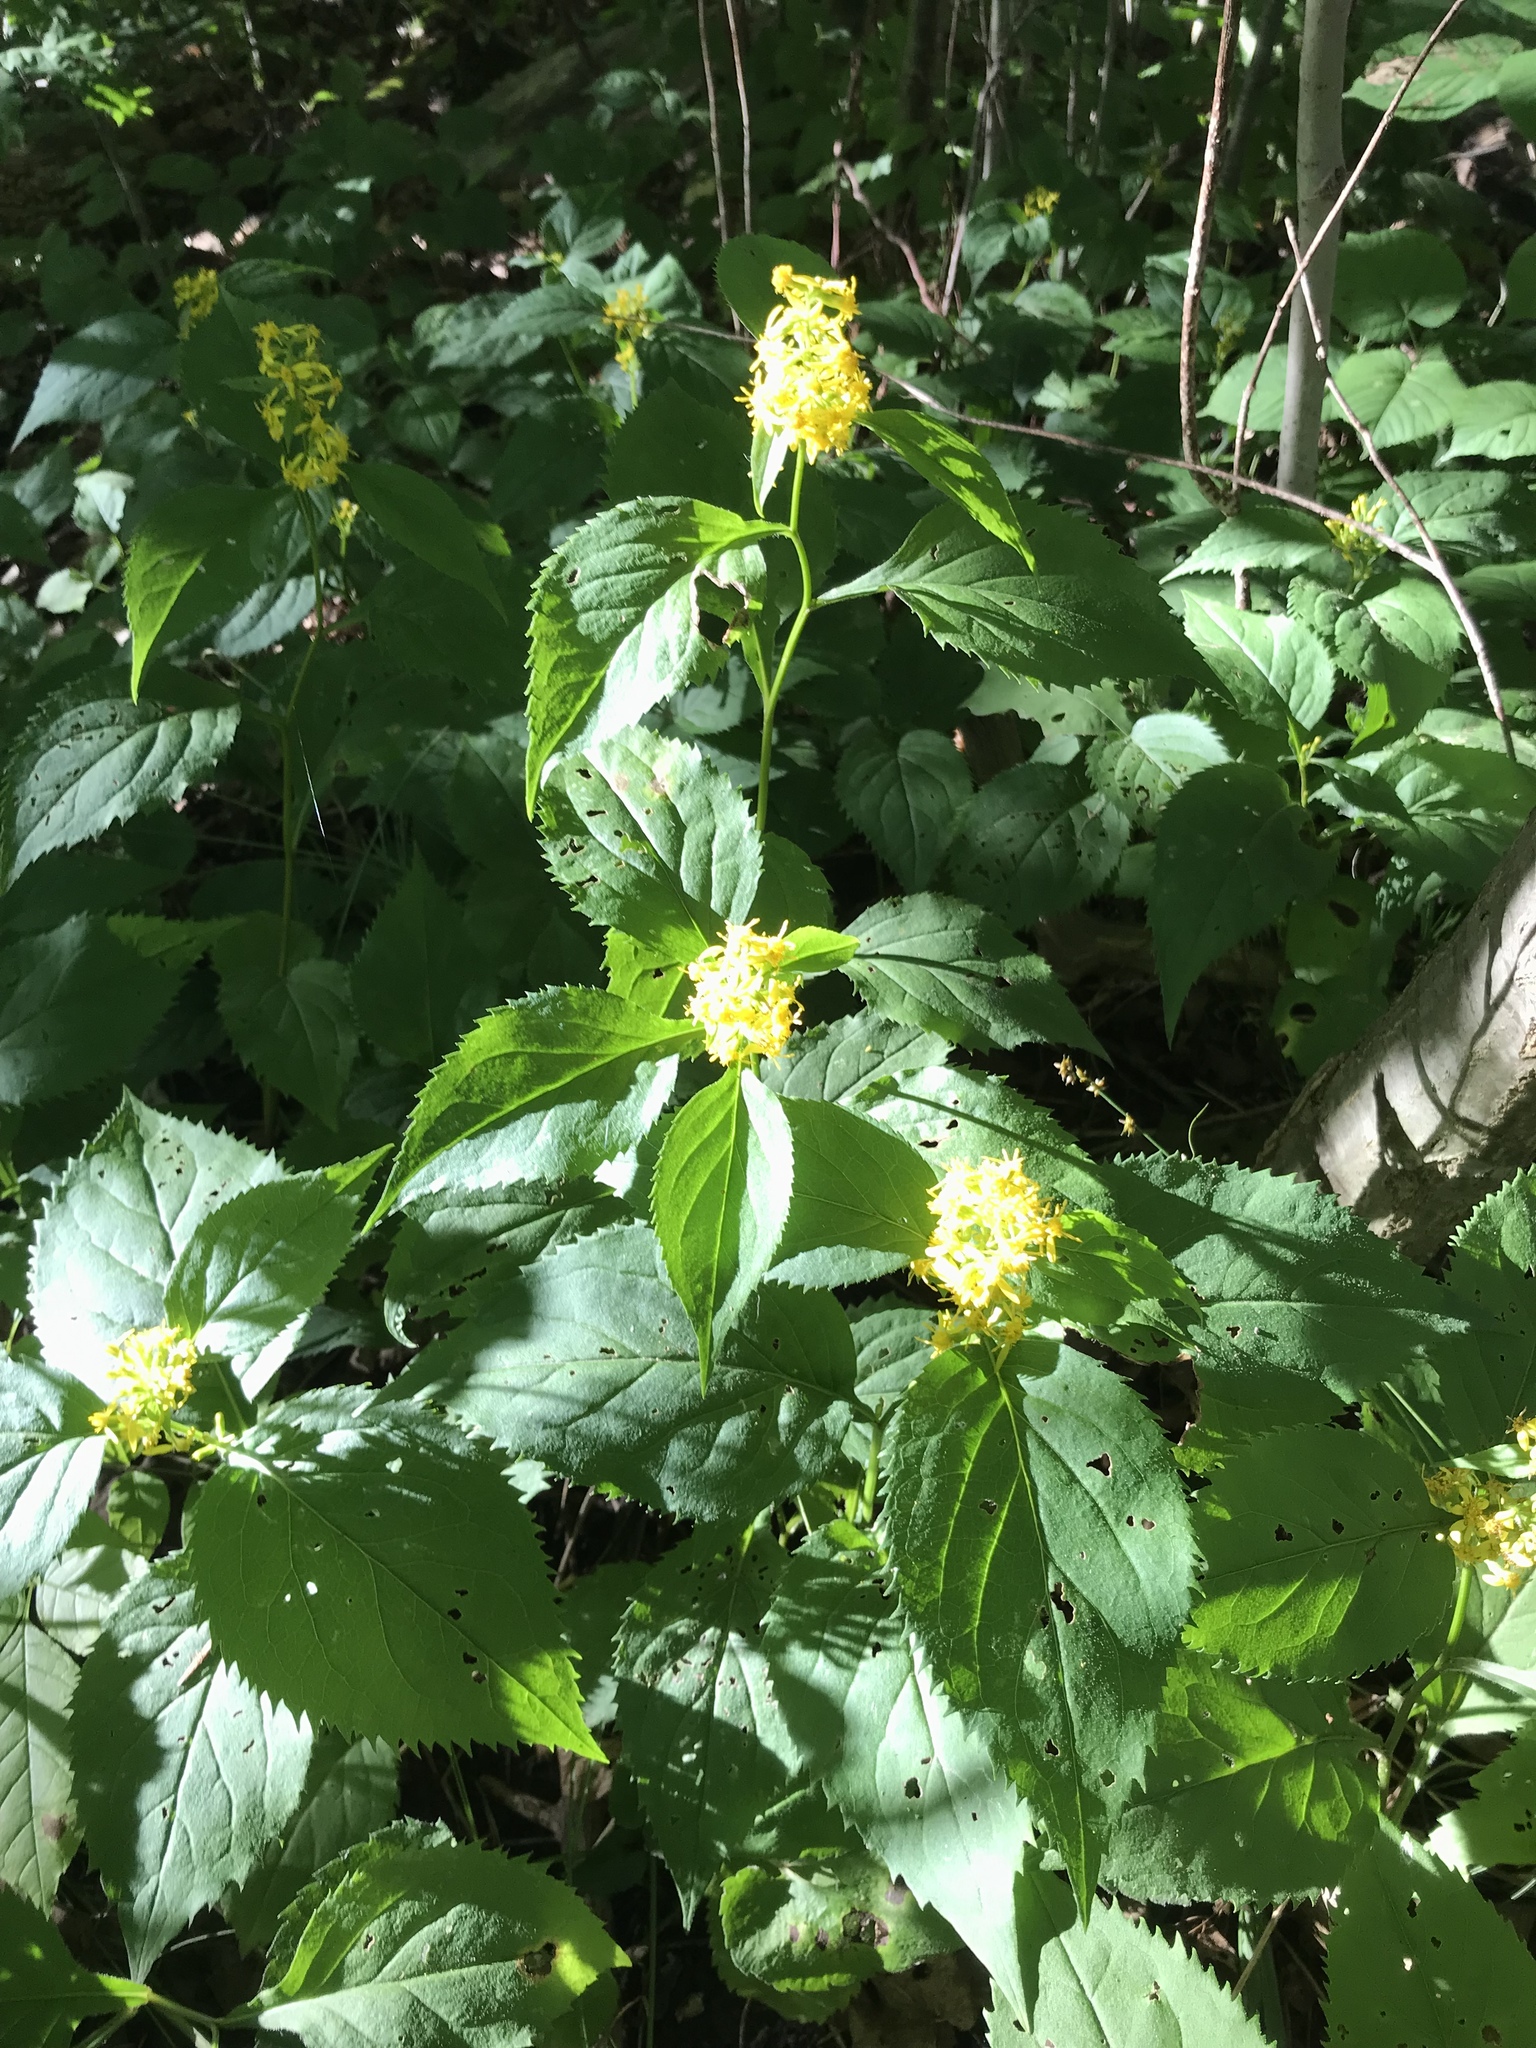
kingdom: Plantae
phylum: Tracheophyta
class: Magnoliopsida
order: Asterales
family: Asteraceae
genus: Solidago
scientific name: Solidago flexicaulis
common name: Zig-zag goldenrod
